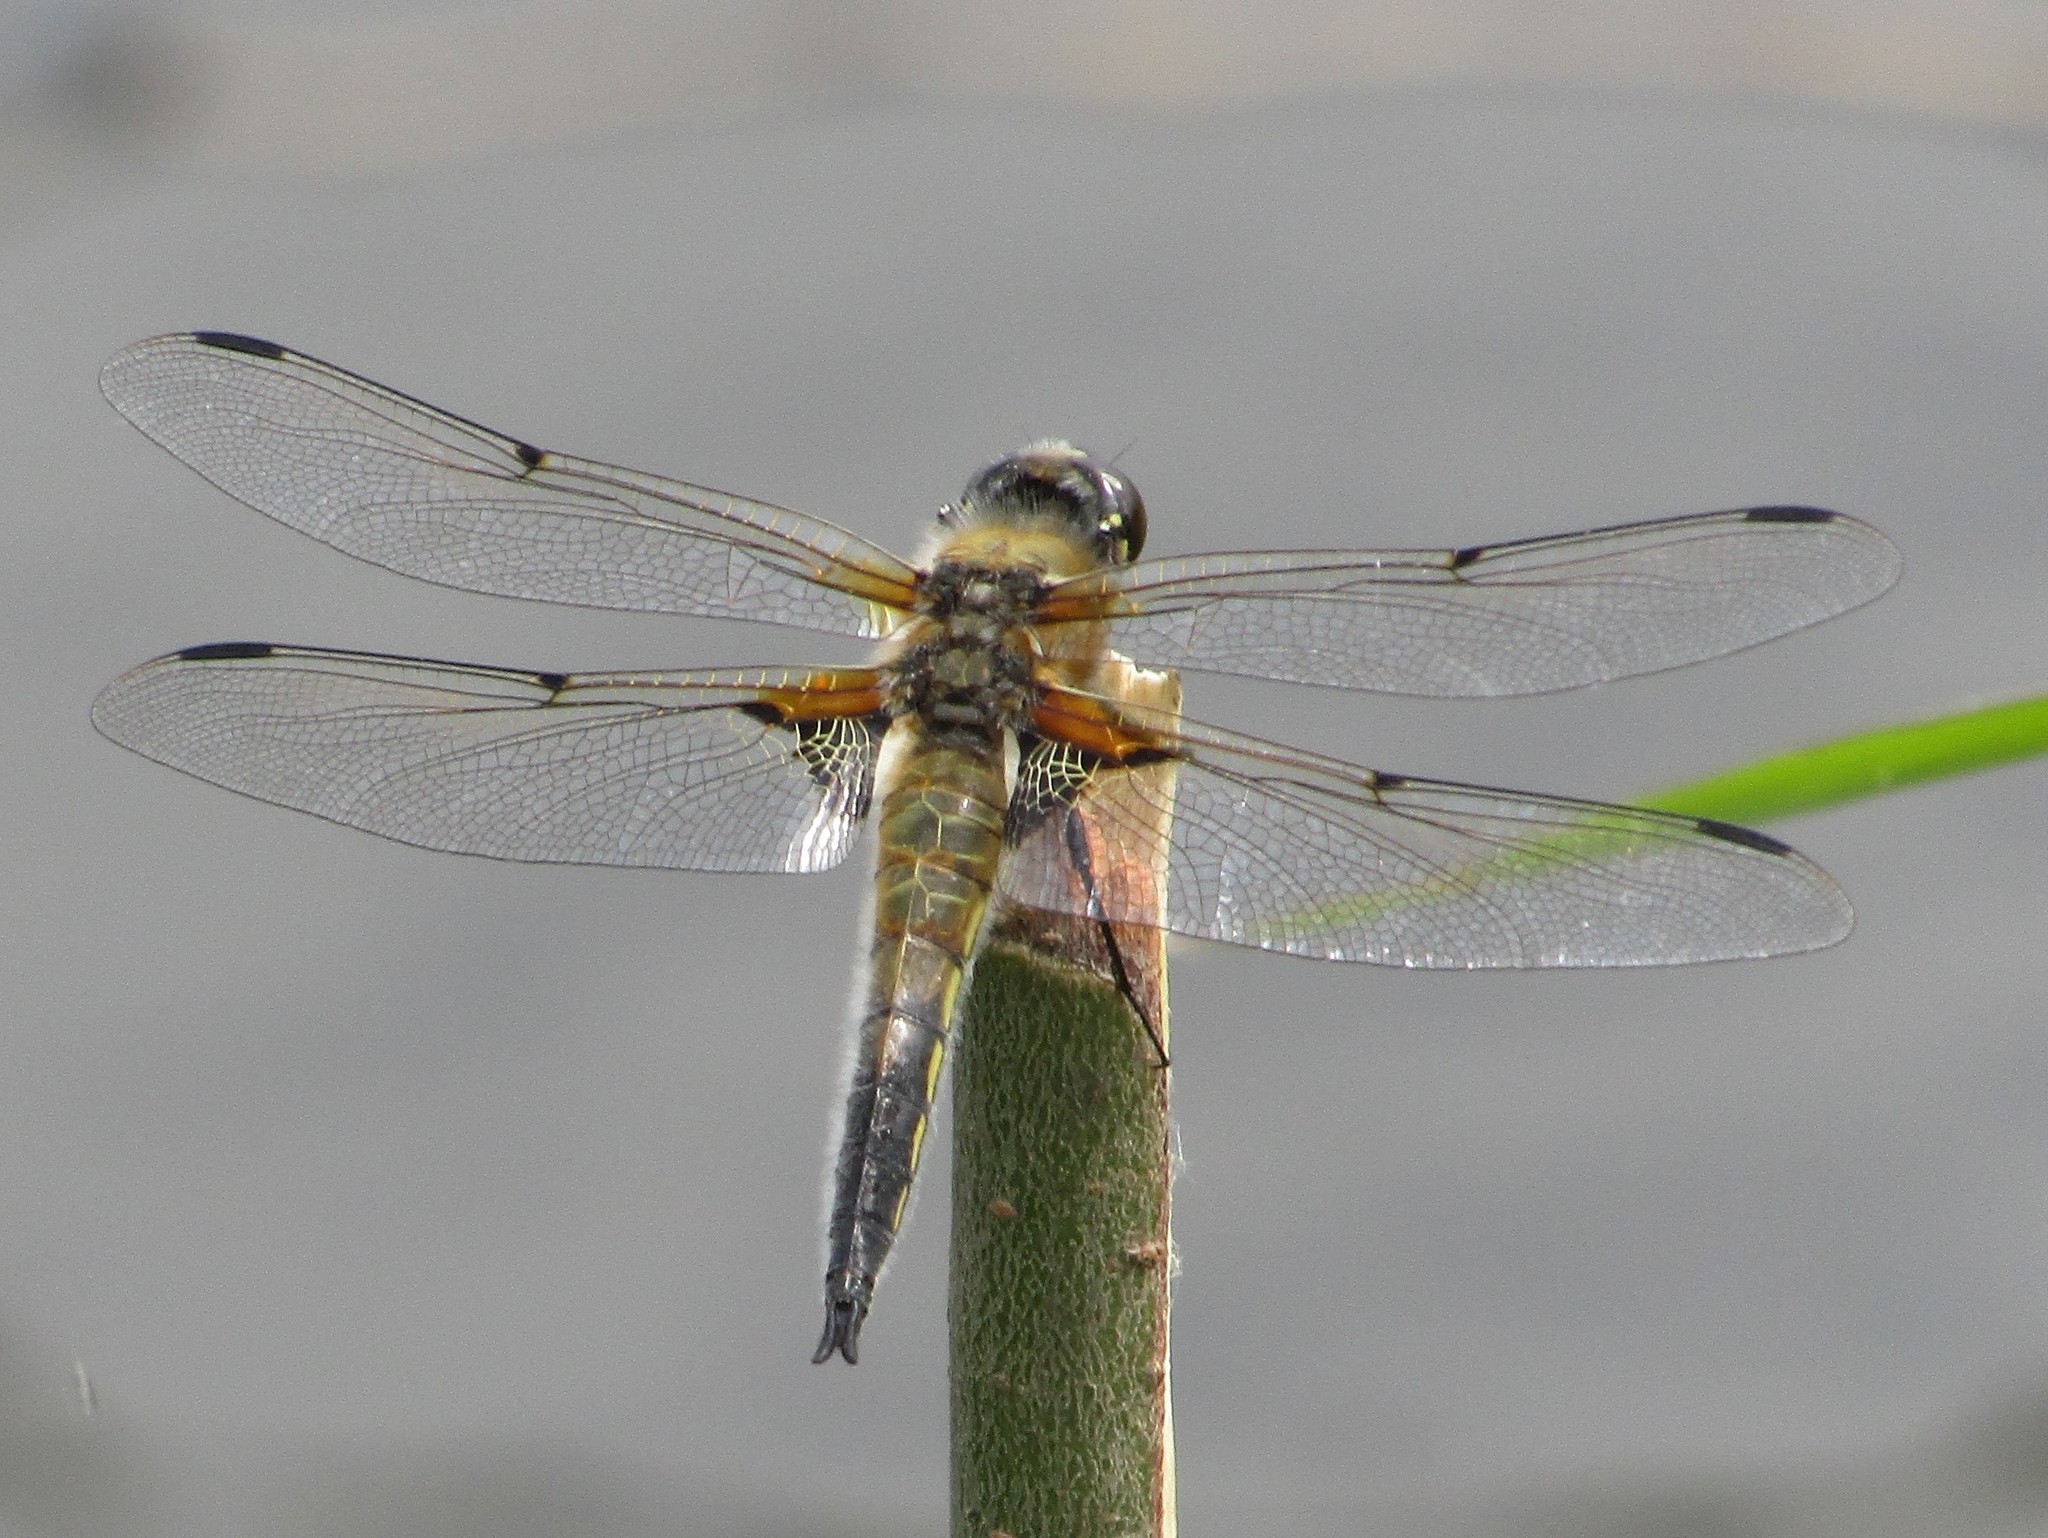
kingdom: Animalia
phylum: Arthropoda
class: Insecta
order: Odonata
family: Libellulidae
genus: Libellula
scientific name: Libellula quadrimaculata
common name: Four-spotted chaser
